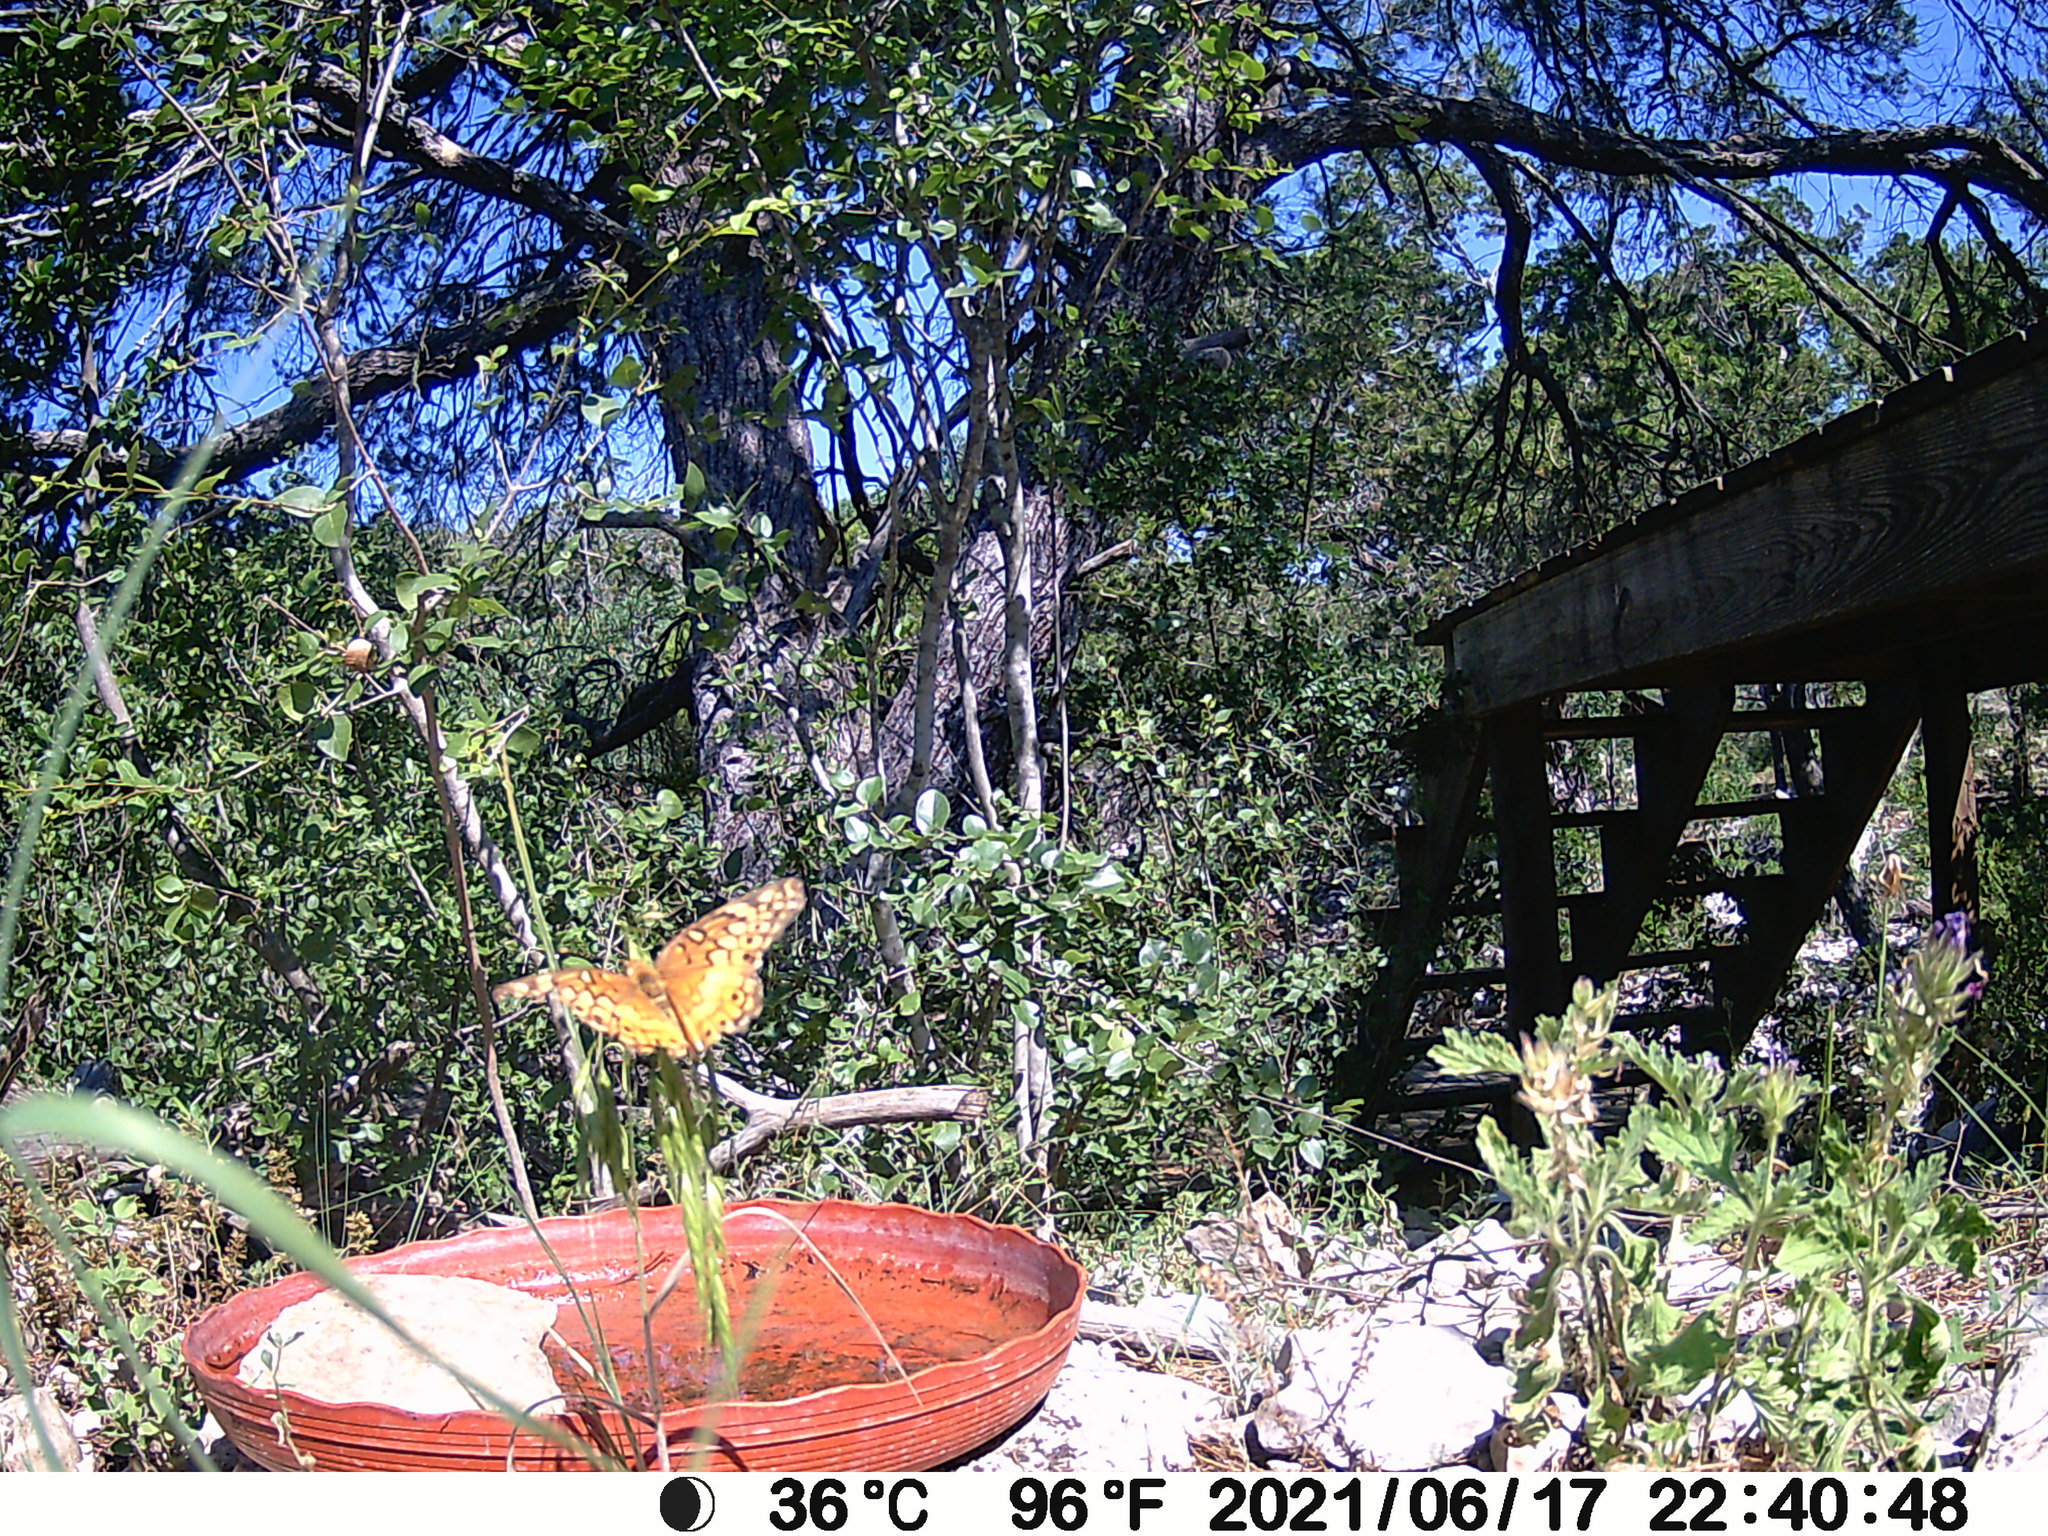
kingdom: Animalia
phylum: Arthropoda
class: Insecta
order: Lepidoptera
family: Nymphalidae
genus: Euptoieta
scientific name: Euptoieta claudia
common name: Variegated fritillary
